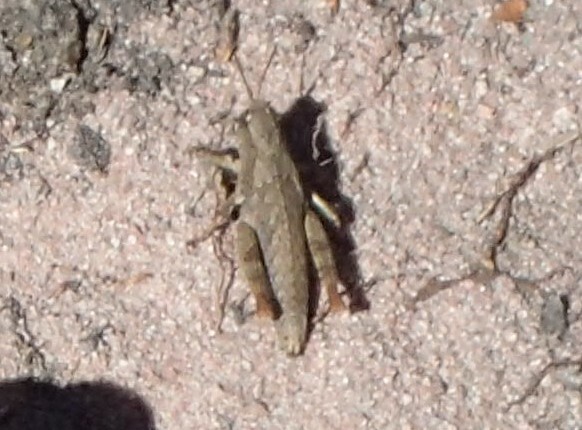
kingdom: Animalia
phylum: Arthropoda
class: Insecta
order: Orthoptera
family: Acrididae
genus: Tasmaniacris
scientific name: Tasmaniacris tasmaniensis
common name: Tasmanian grasshopper
